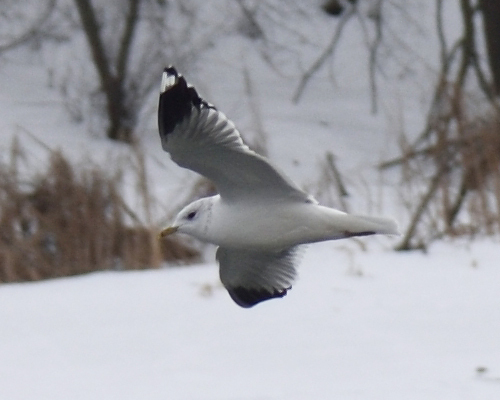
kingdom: Animalia
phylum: Chordata
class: Aves
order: Charadriiformes
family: Laridae
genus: Larus
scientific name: Larus canus
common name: Mew gull
